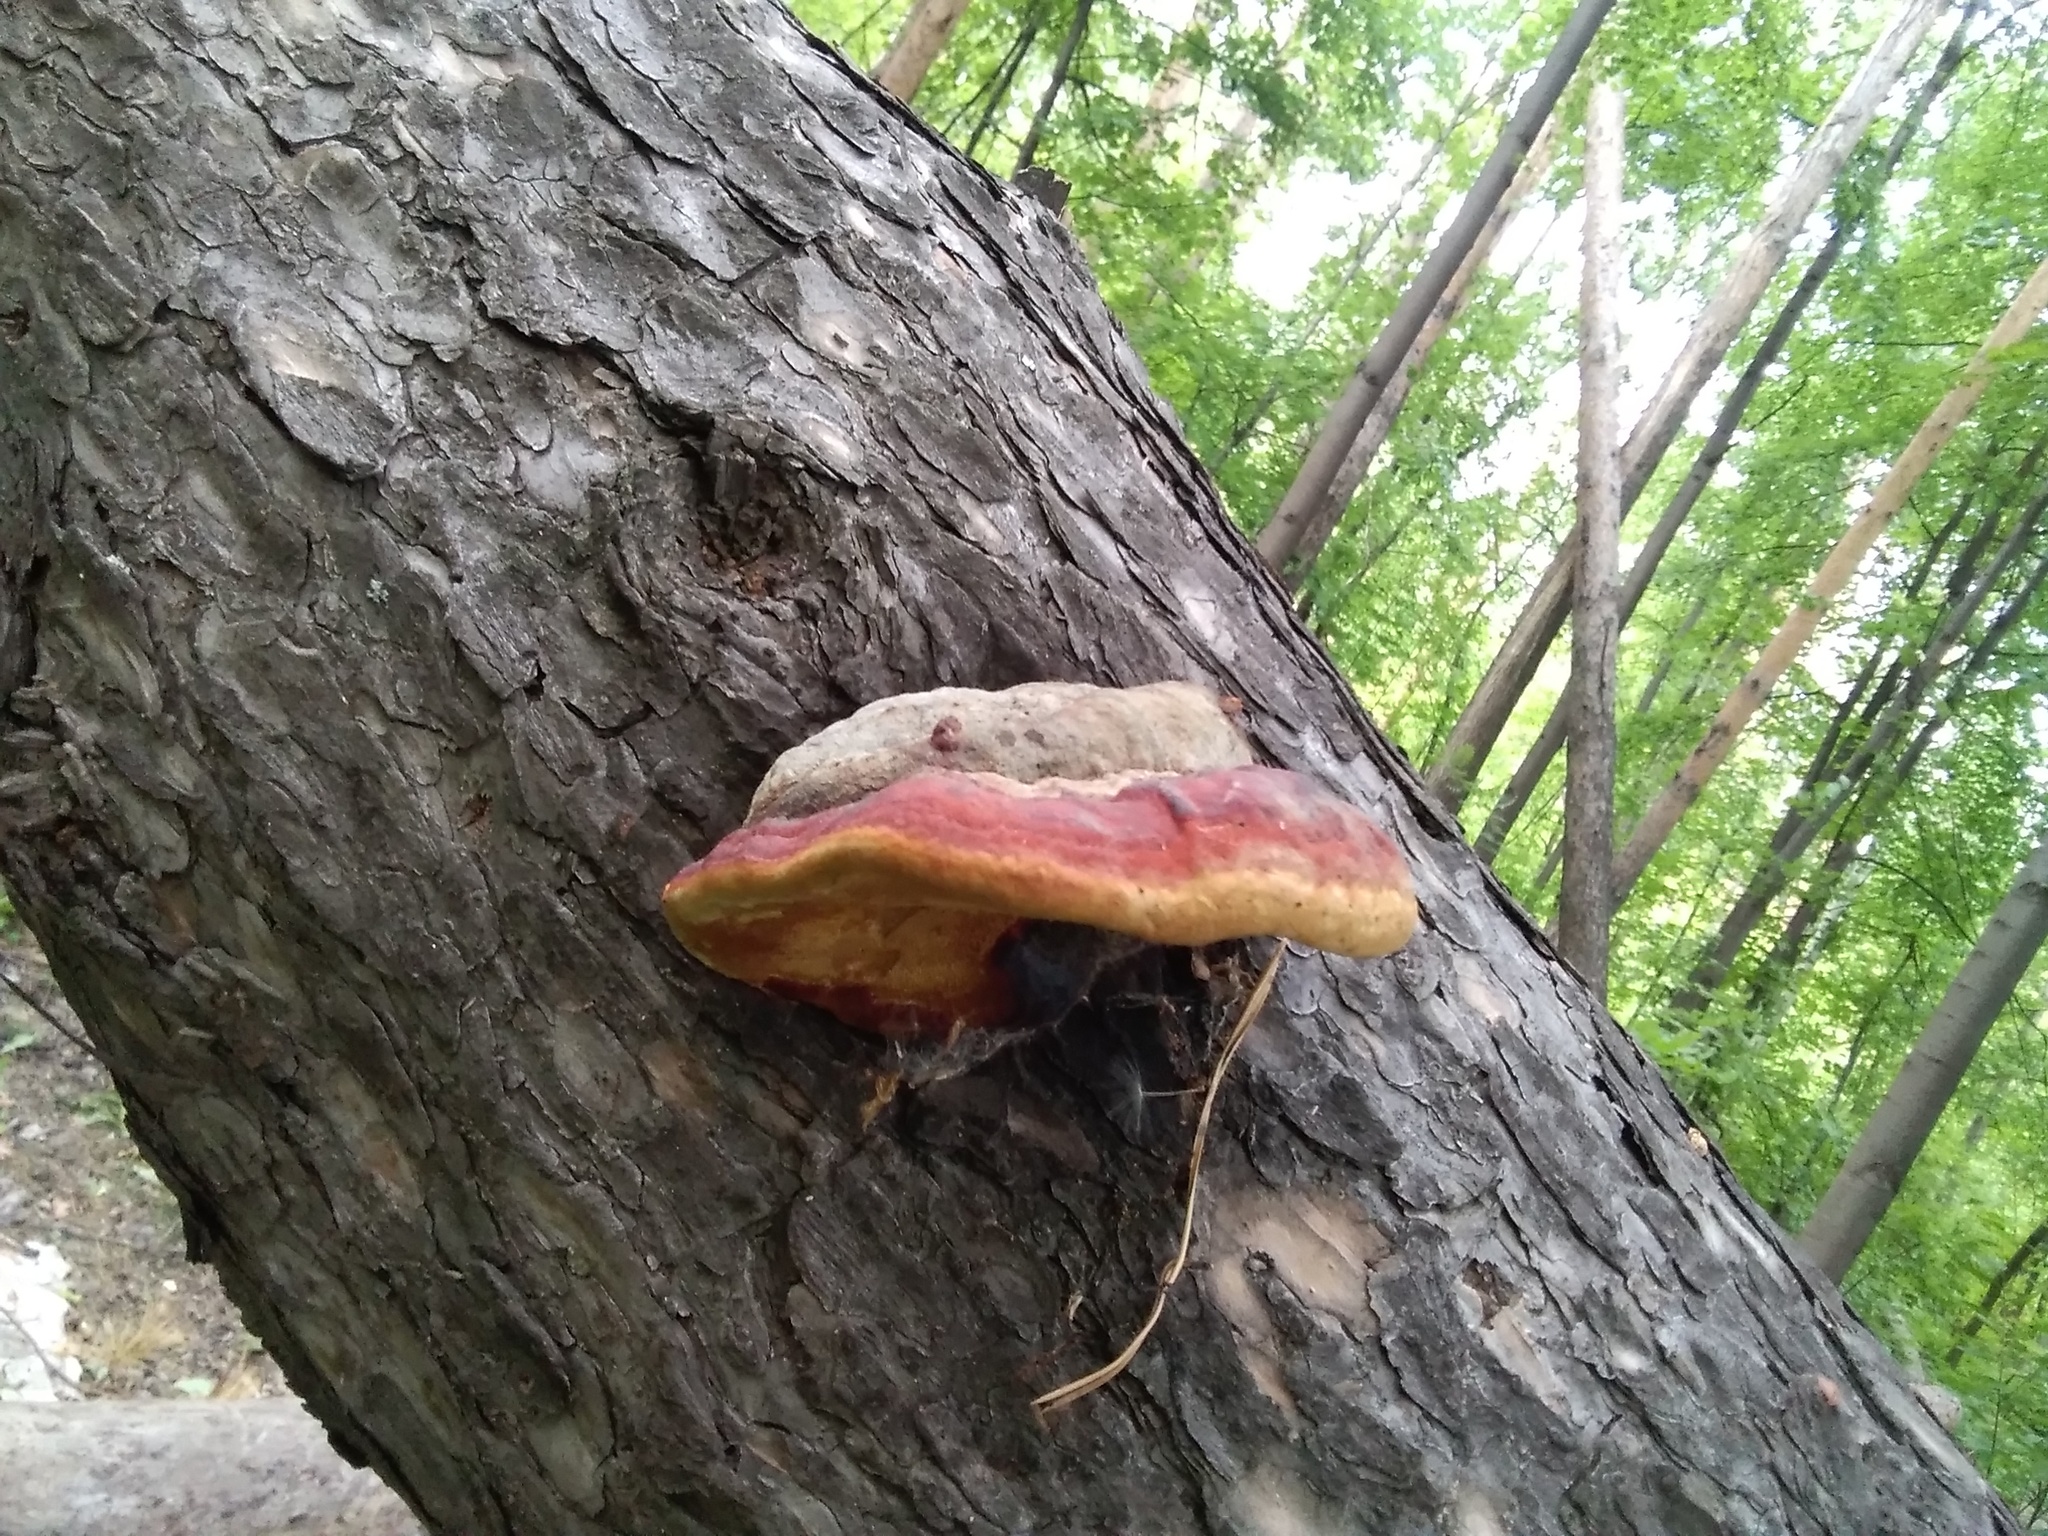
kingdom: Fungi
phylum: Basidiomycota
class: Agaricomycetes
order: Polyporales
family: Fomitopsidaceae
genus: Fomitopsis
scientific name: Fomitopsis pinicola
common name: Red-belted bracket
